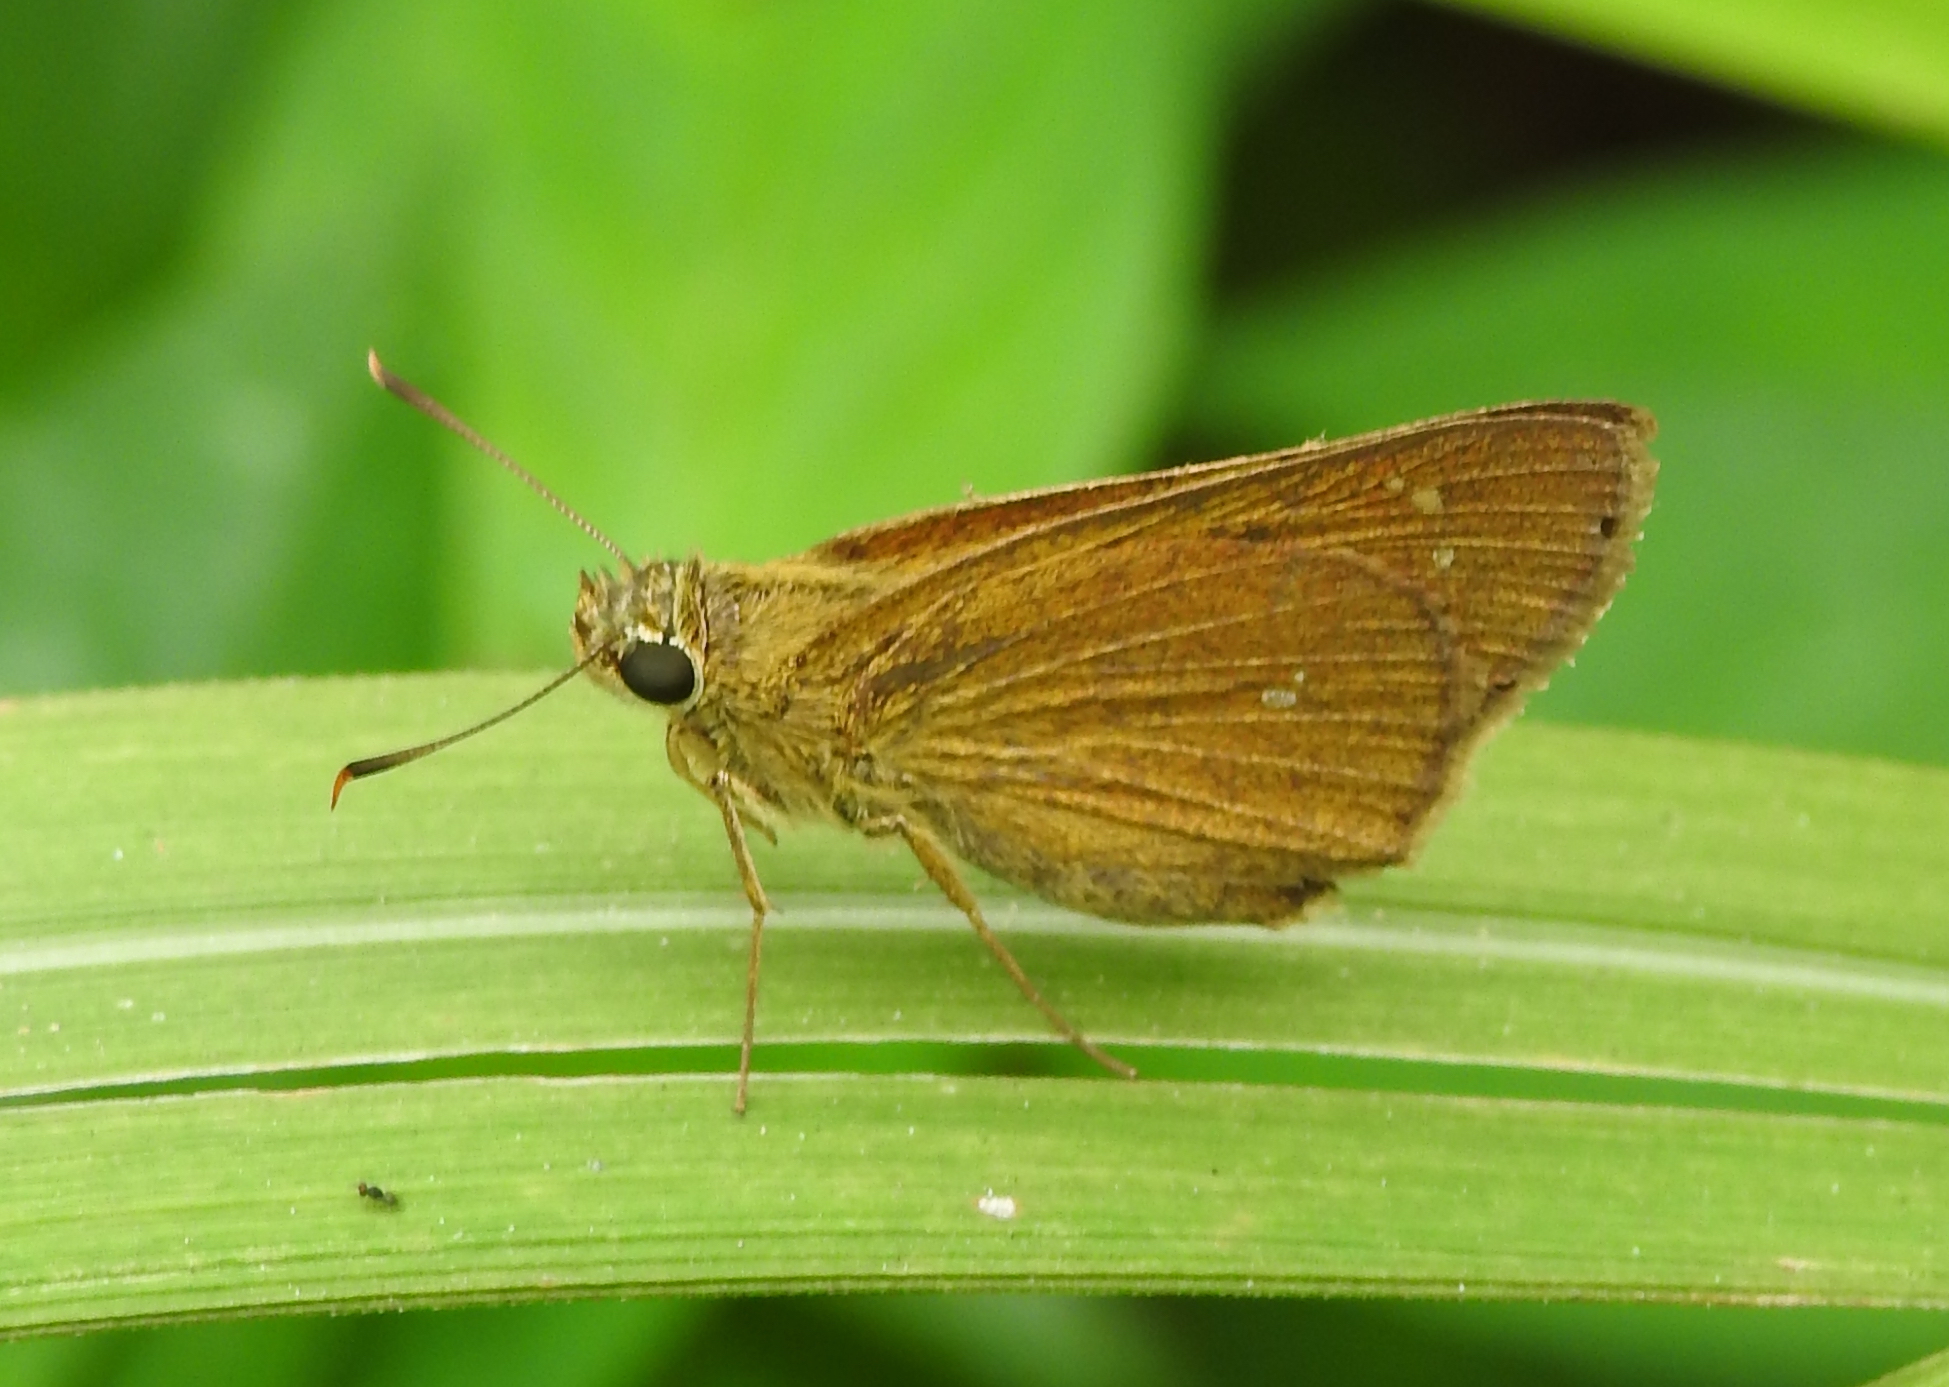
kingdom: Animalia
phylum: Arthropoda
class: Insecta
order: Lepidoptera
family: Hesperiidae
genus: Polytremis
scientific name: Polytremis lubricans
